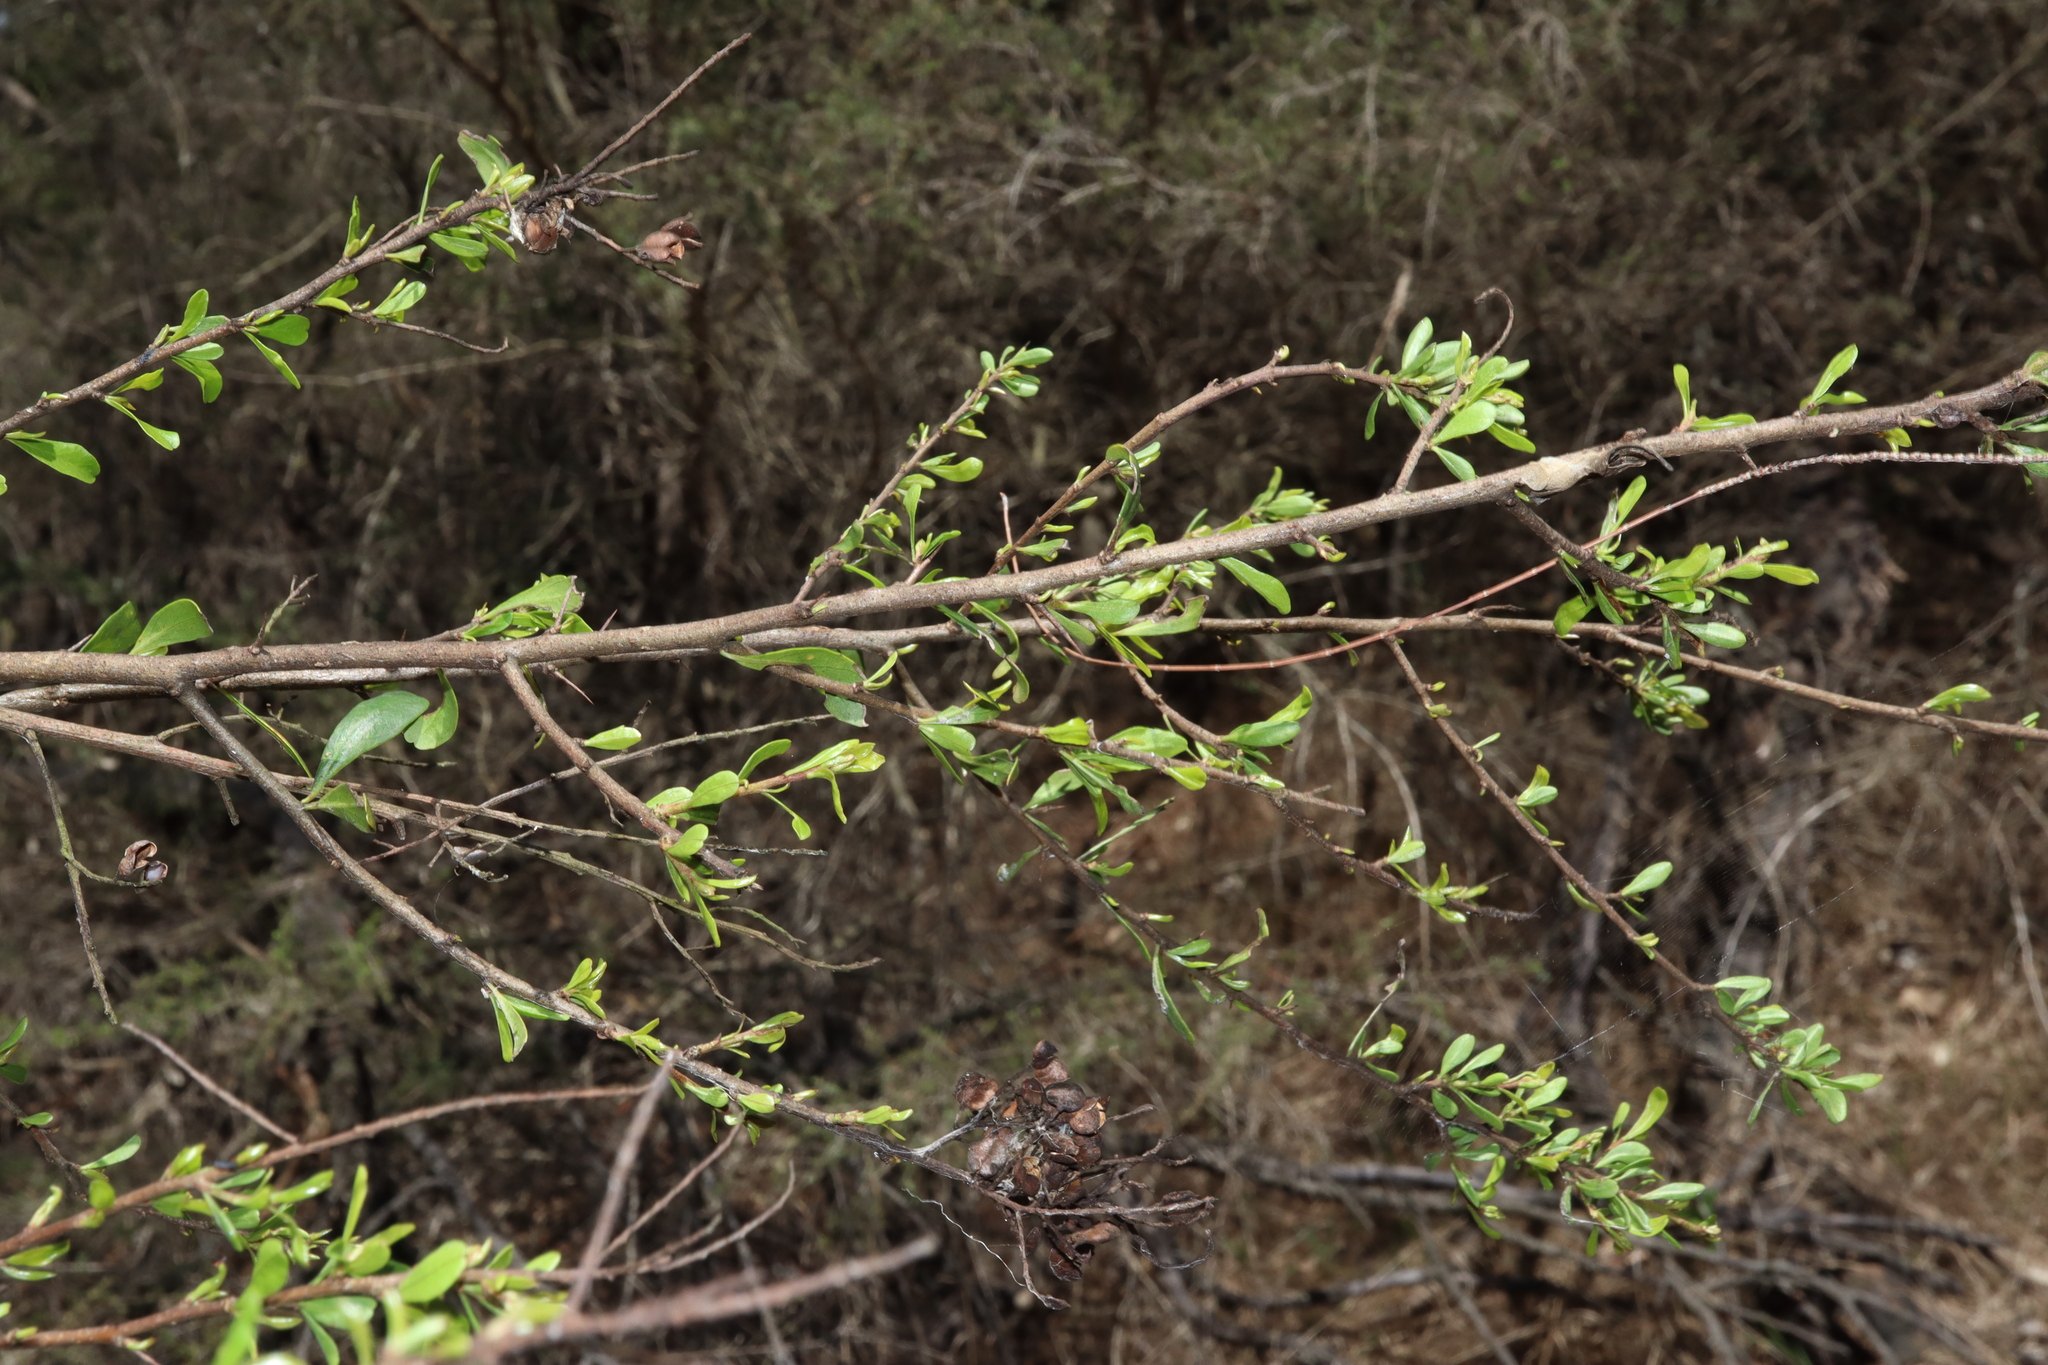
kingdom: Plantae
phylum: Tracheophyta
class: Magnoliopsida
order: Apiales
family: Pittosporaceae
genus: Bursaria
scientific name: Bursaria spinosa
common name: Australian blackthorn
